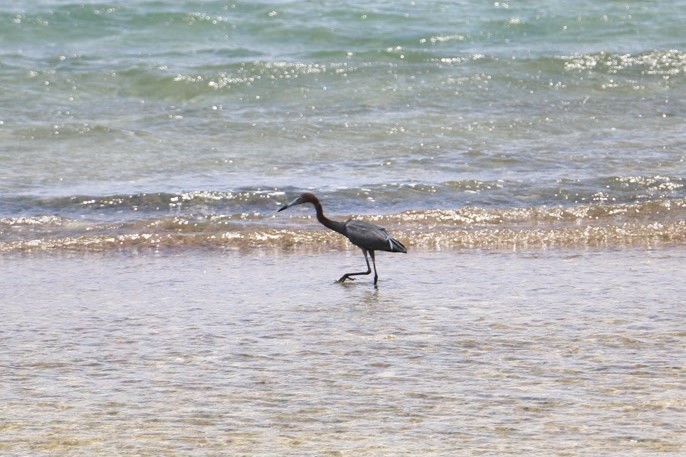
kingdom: Animalia
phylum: Chordata
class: Aves
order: Pelecaniformes
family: Ardeidae
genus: Egretta
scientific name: Egretta caerulea
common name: Little blue heron
